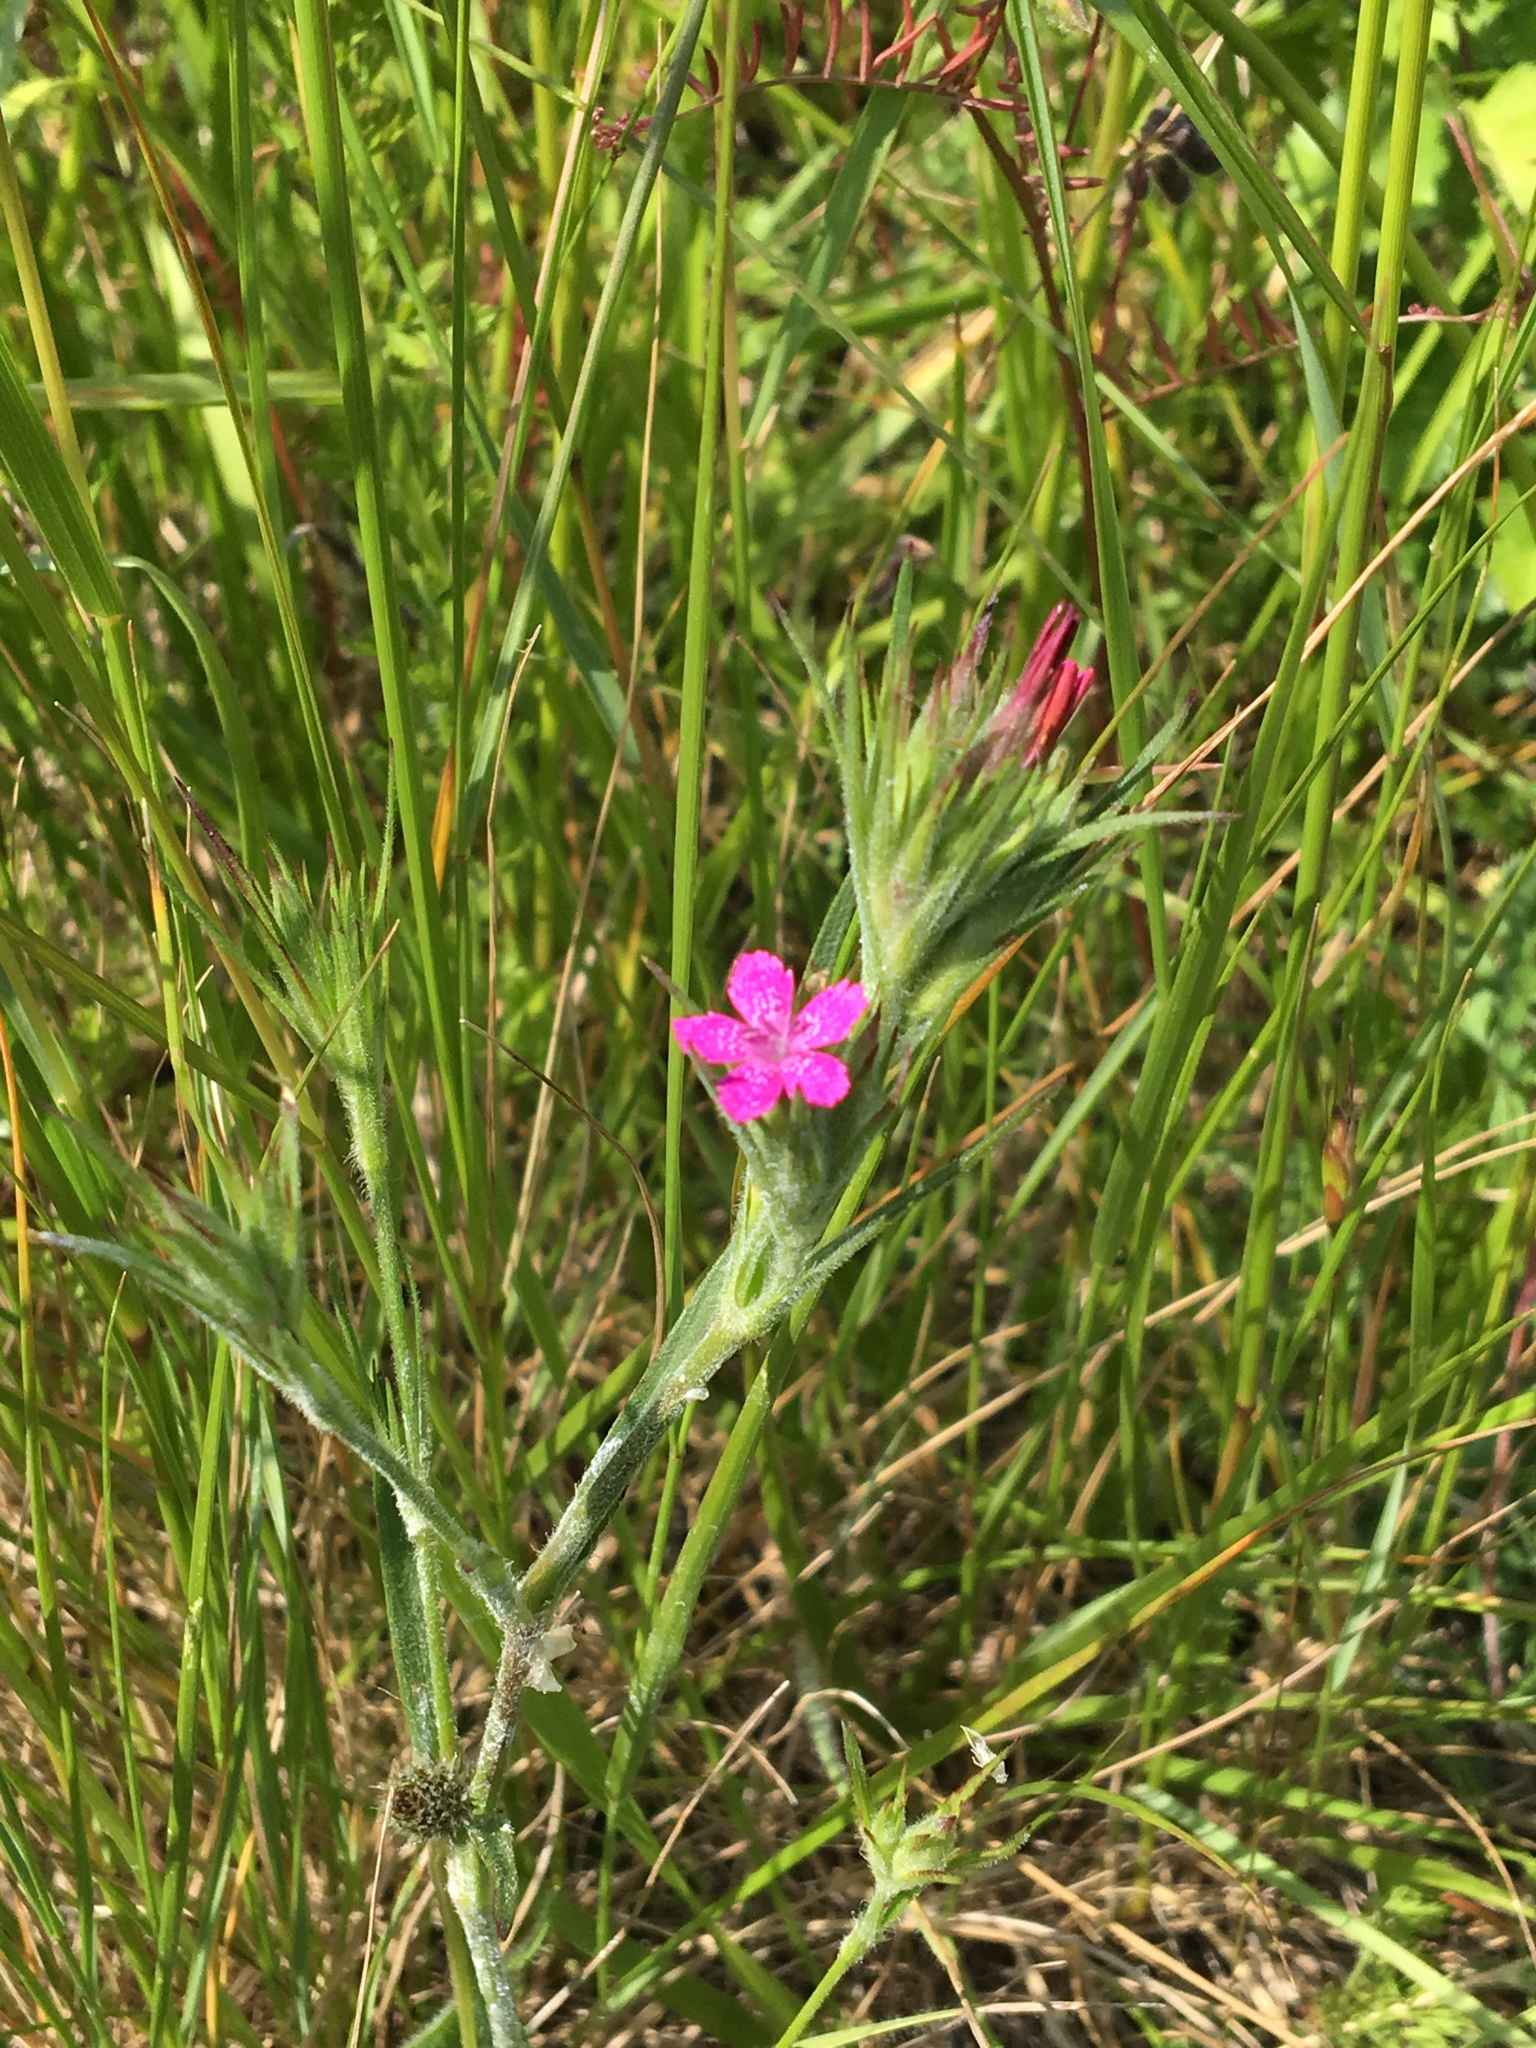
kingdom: Plantae
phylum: Tracheophyta
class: Magnoliopsida
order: Caryophyllales
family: Caryophyllaceae
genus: Dianthus
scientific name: Dianthus armeria
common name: Deptford pink
